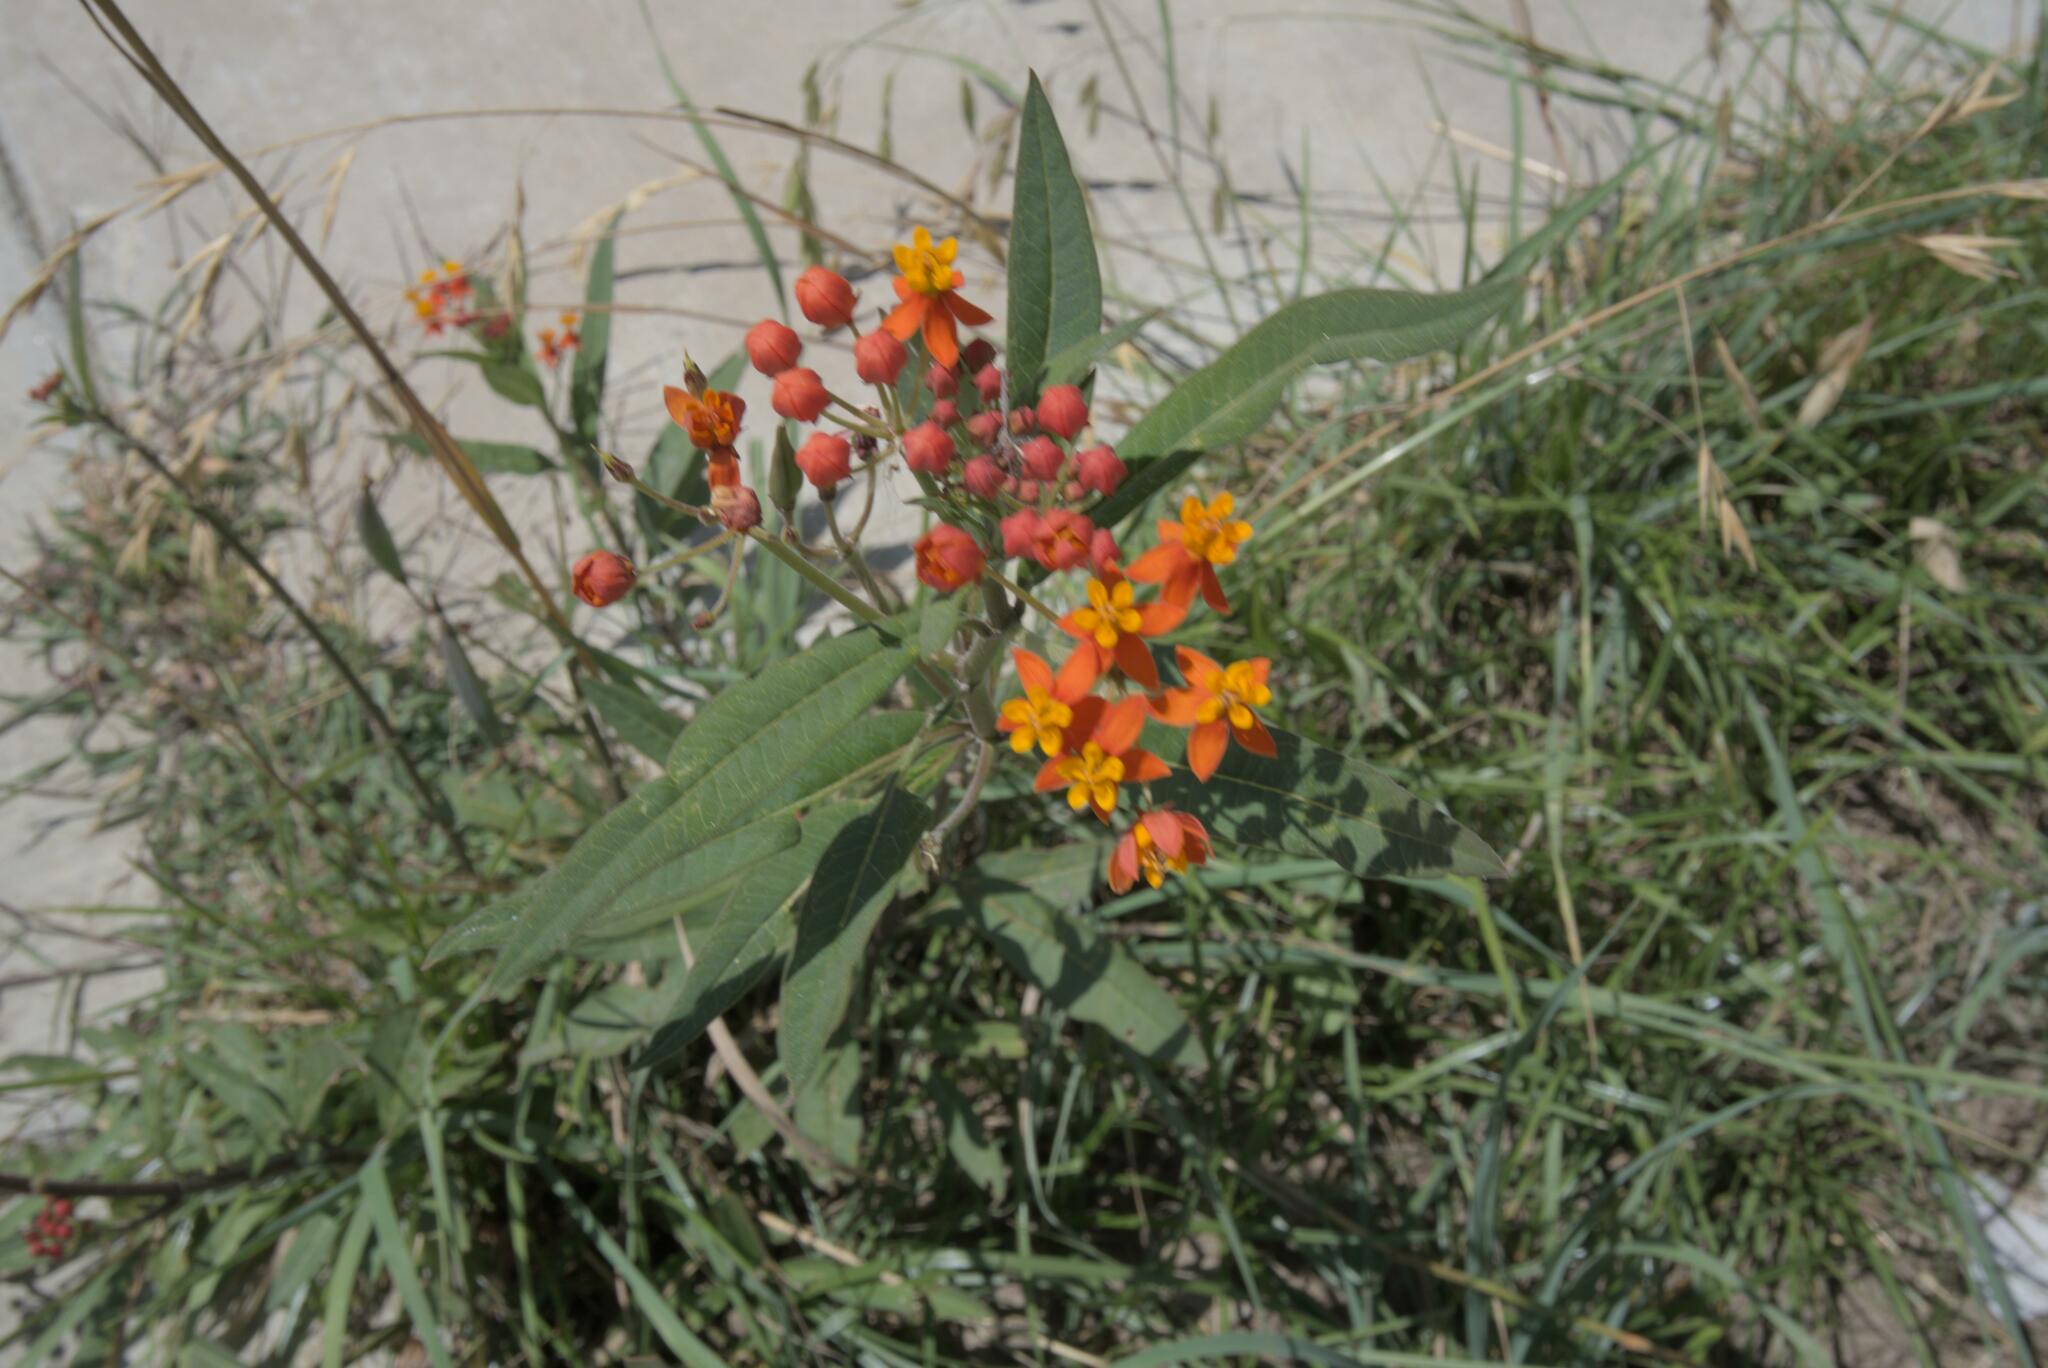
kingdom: Plantae
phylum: Tracheophyta
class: Magnoliopsida
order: Gentianales
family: Apocynaceae
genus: Asclepias
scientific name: Asclepias curassavica
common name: Bloodflower
